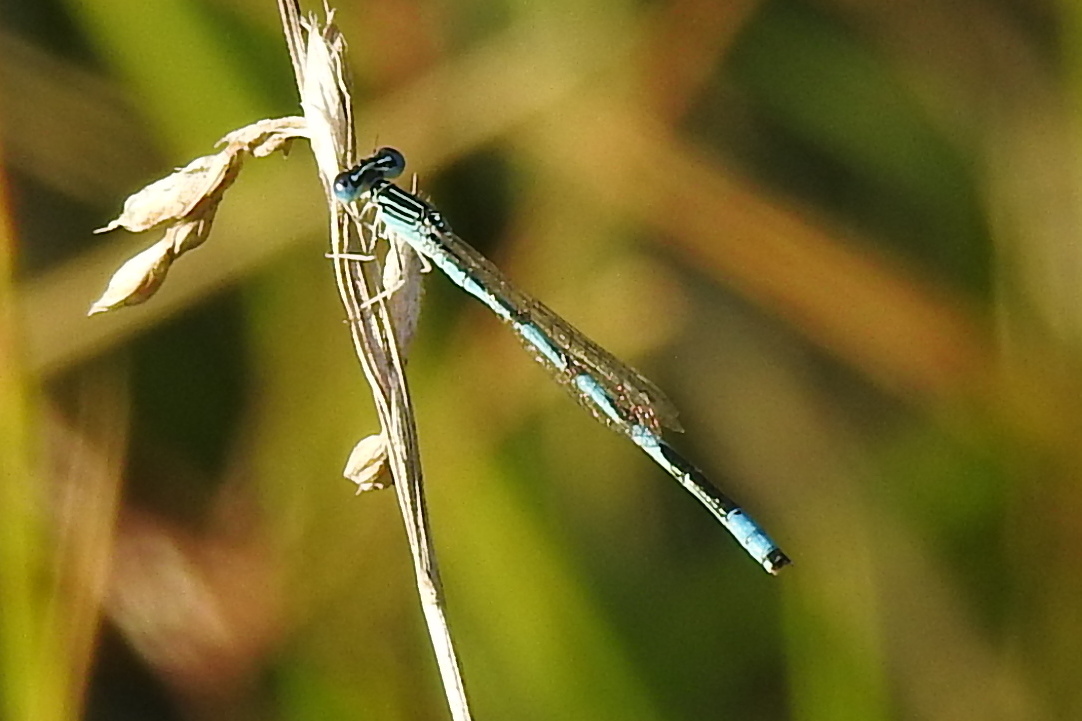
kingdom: Animalia
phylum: Arthropoda
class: Insecta
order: Odonata
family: Coenagrionidae
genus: Enallagma
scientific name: Enallagma basidens
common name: Double-striped bluet
